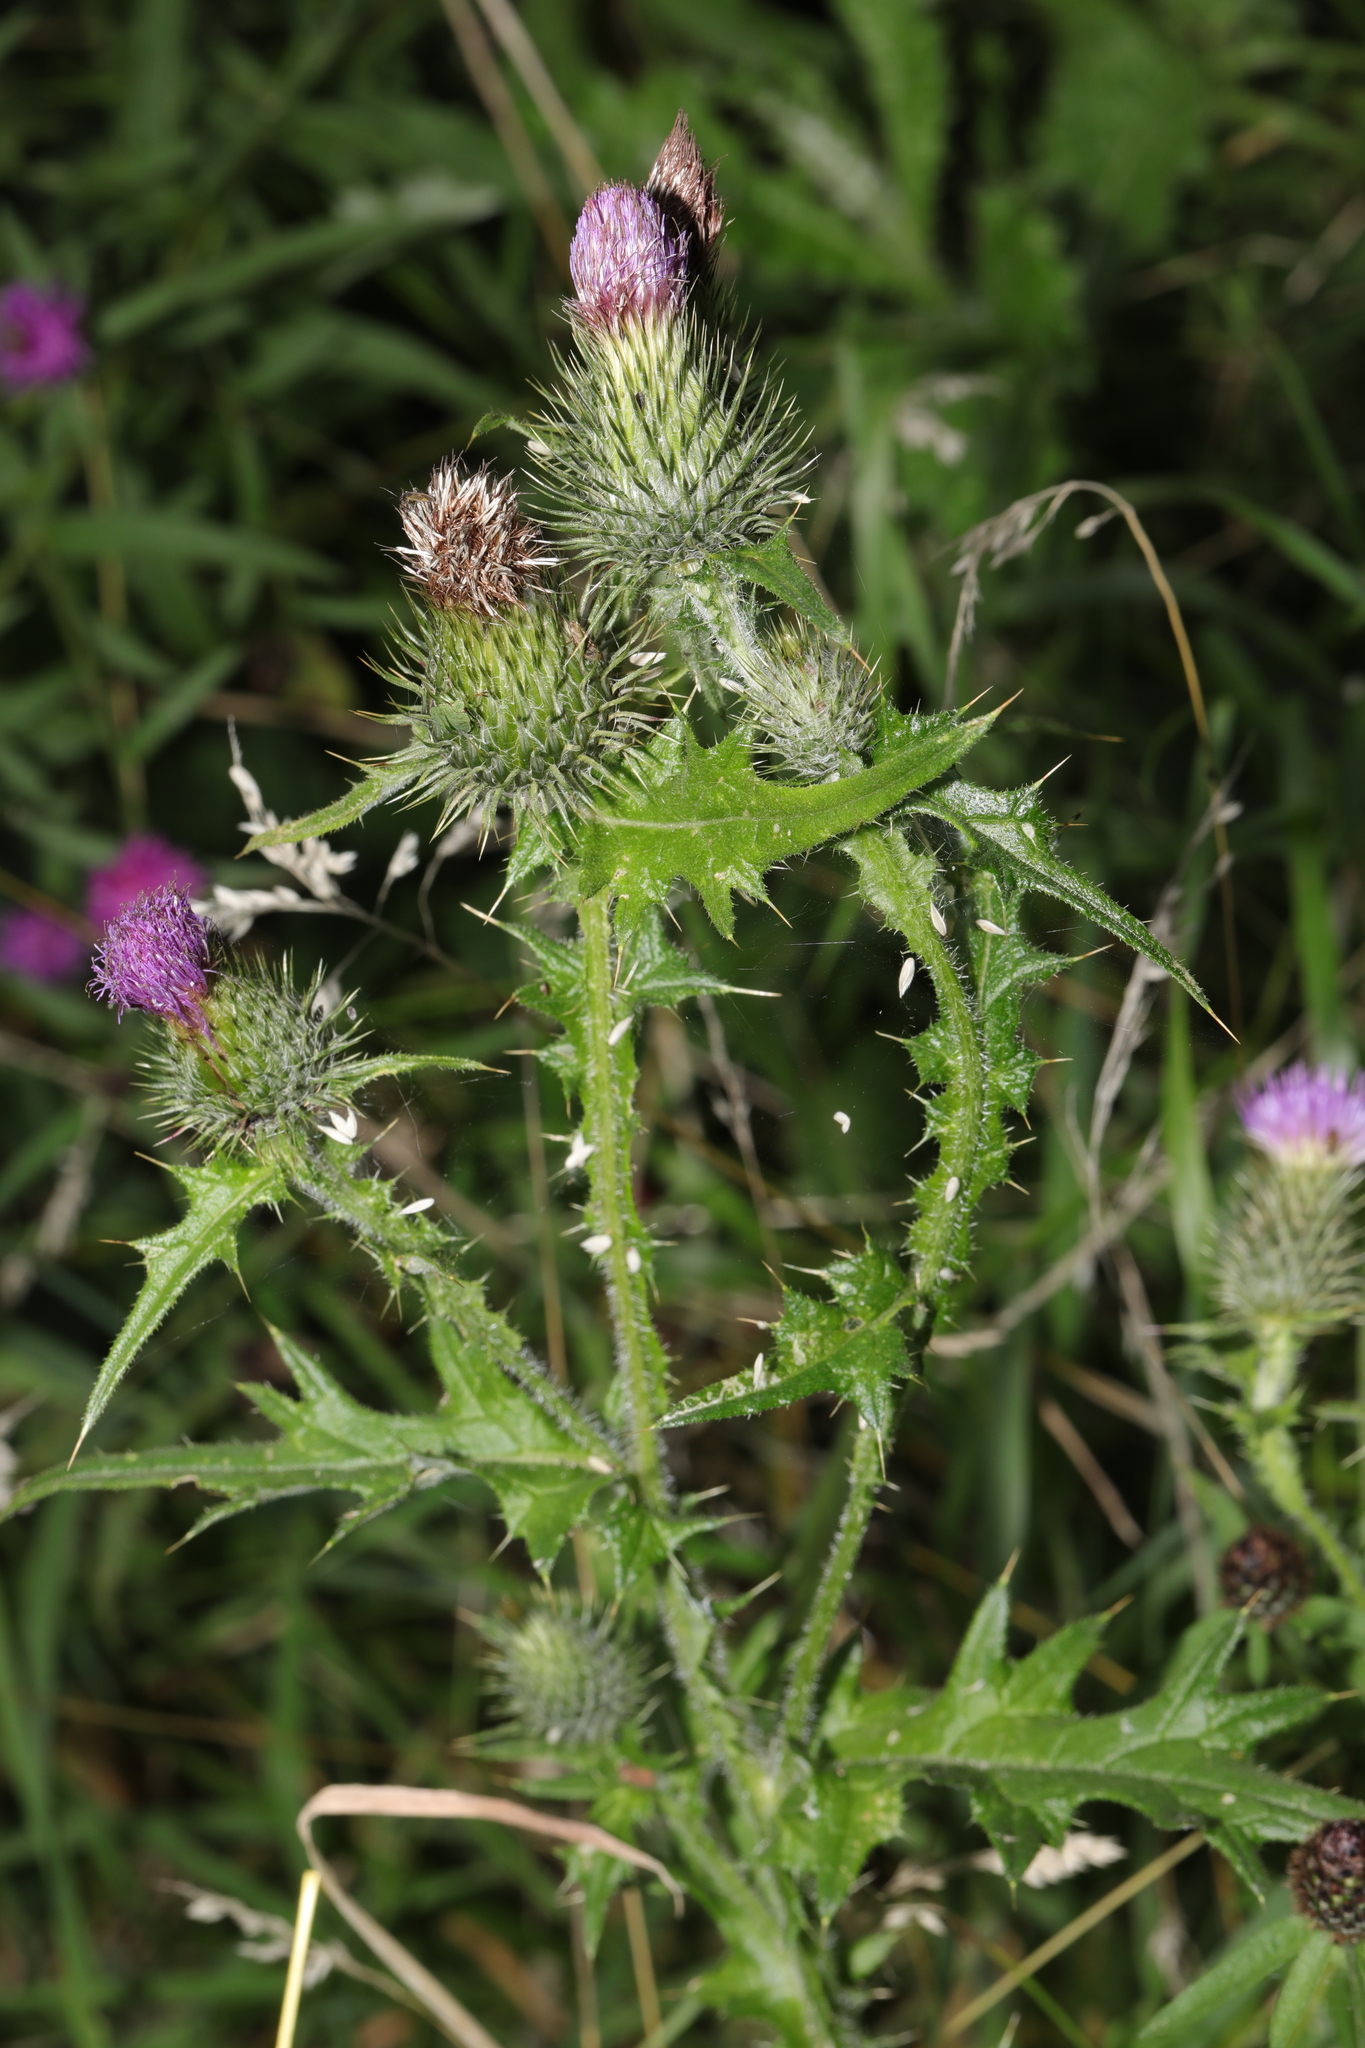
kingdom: Plantae
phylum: Tracheophyta
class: Magnoliopsida
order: Asterales
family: Asteraceae
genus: Cirsium
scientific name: Cirsium vulgare
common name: Bull thistle
